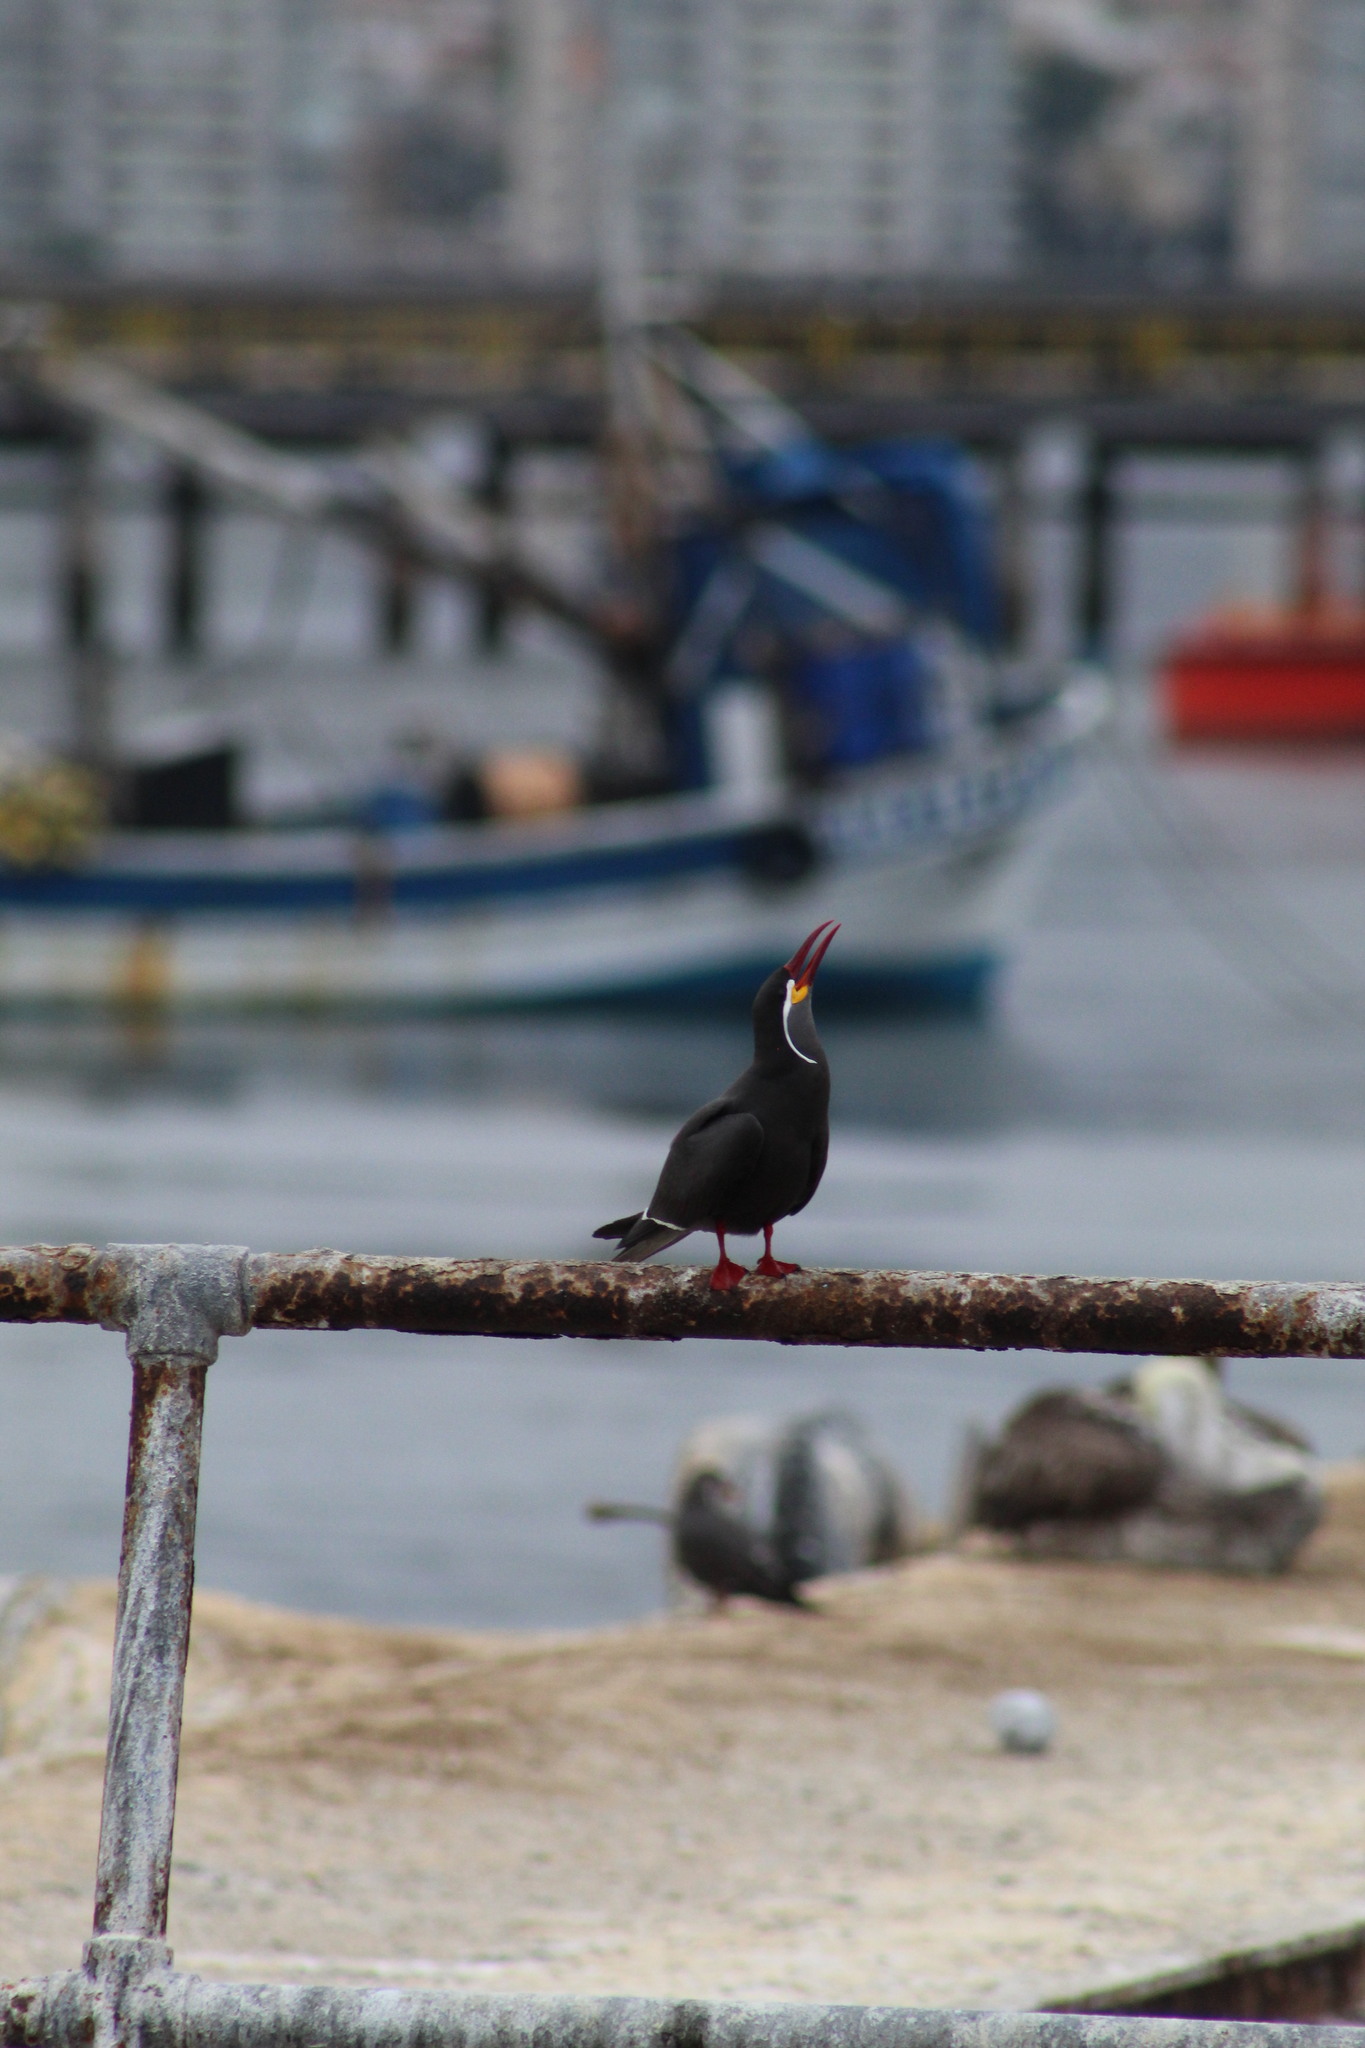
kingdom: Animalia
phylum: Chordata
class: Aves
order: Charadriiformes
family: Laridae
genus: Larosterna
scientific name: Larosterna inca
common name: Inca tern
